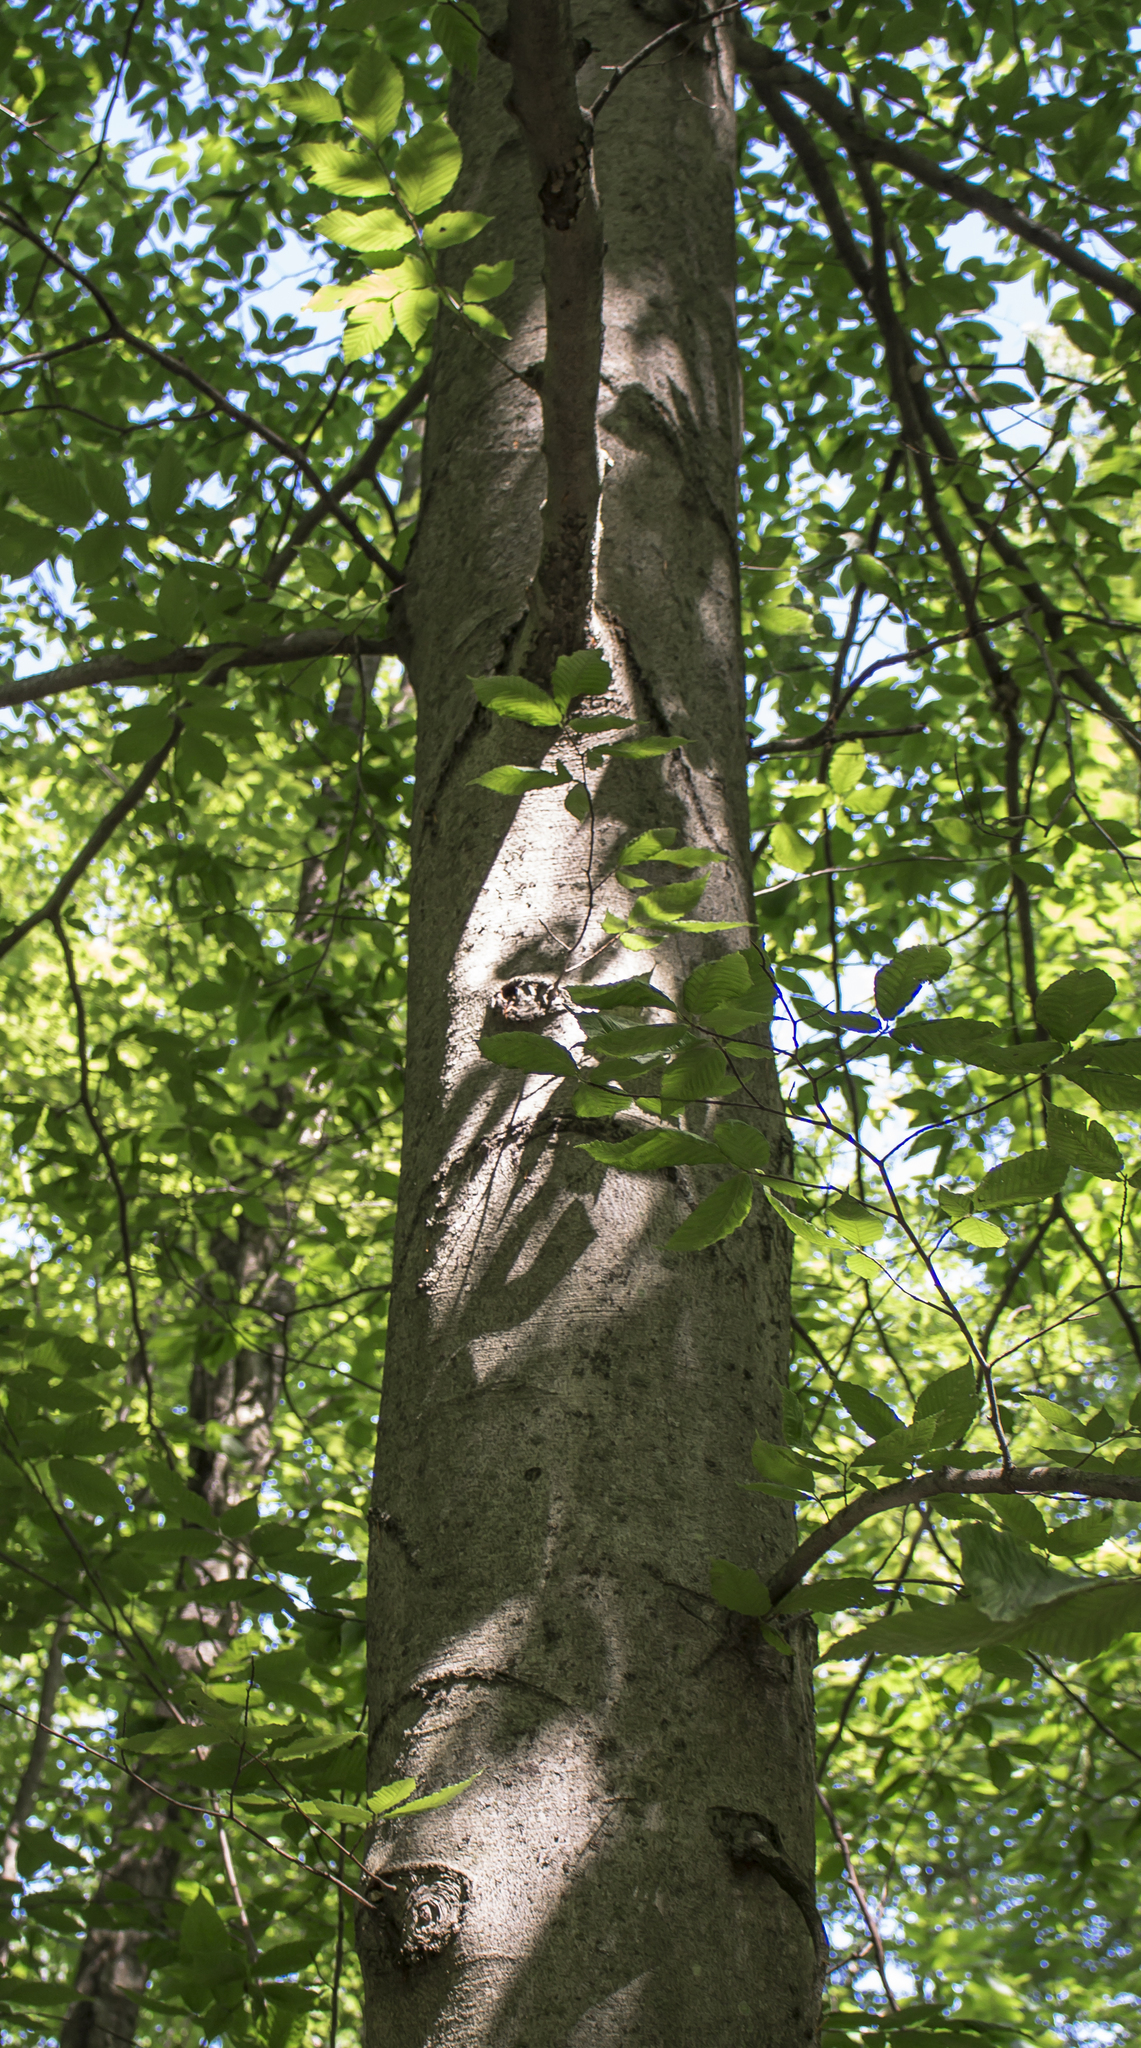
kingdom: Plantae
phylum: Tracheophyta
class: Magnoliopsida
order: Fagales
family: Fagaceae
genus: Fagus
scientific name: Fagus grandifolia
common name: American beech
